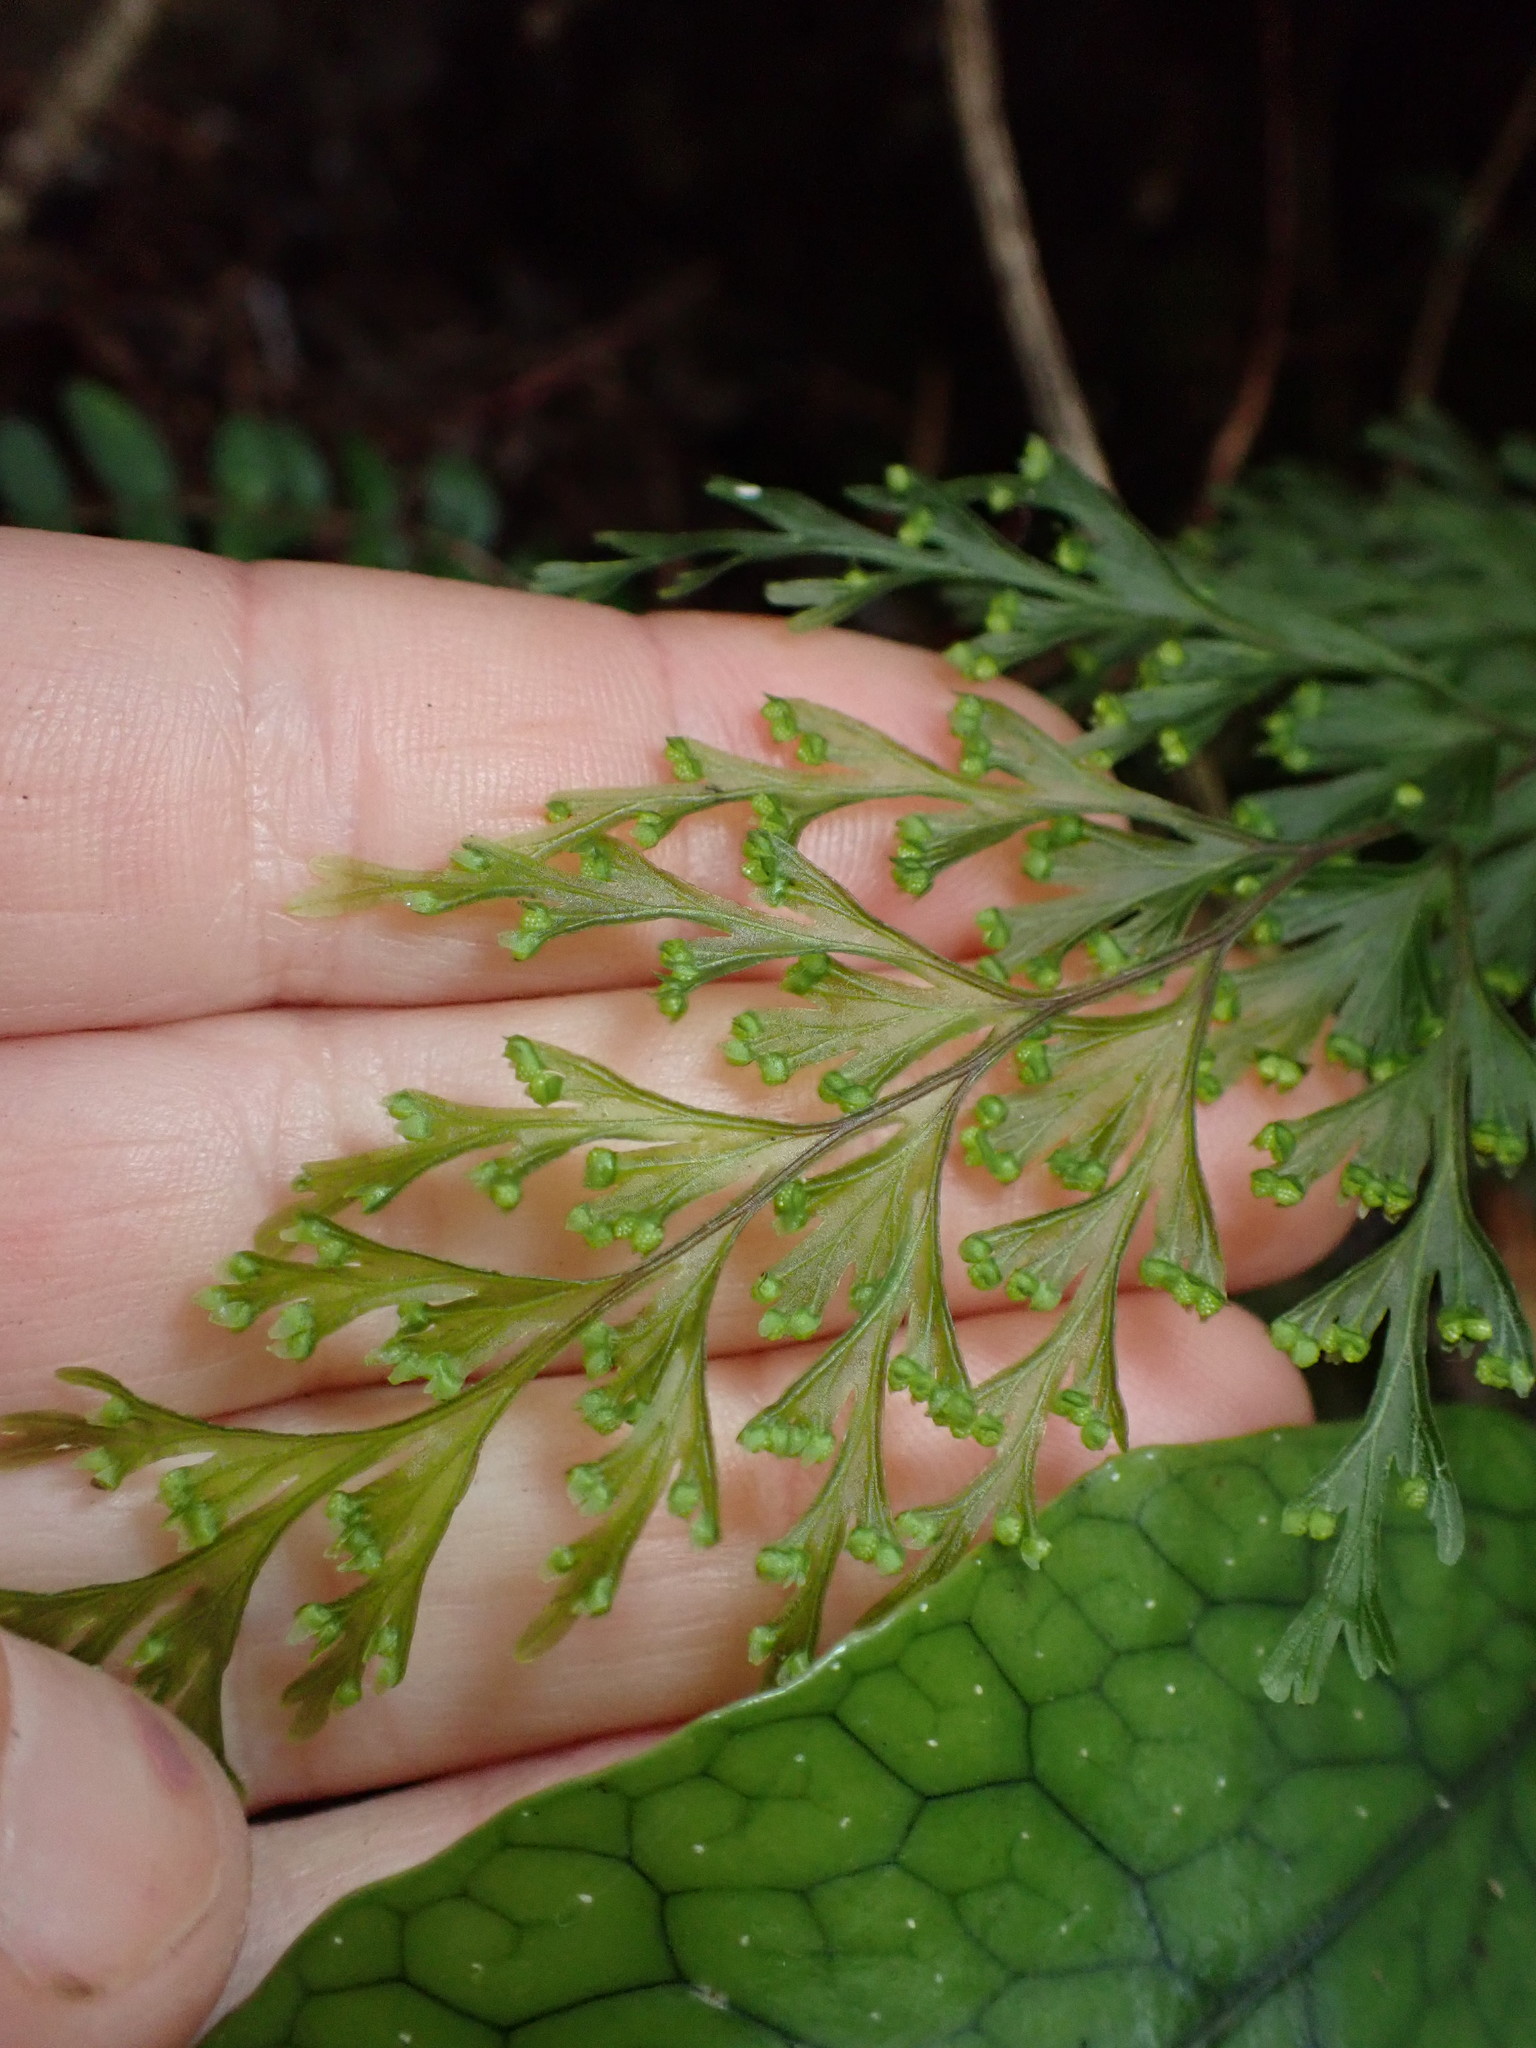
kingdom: Plantae
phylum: Tracheophyta
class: Polypodiopsida
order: Hymenophyllales
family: Hymenophyllaceae
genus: Hymenophyllum
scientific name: Hymenophyllum demissum
